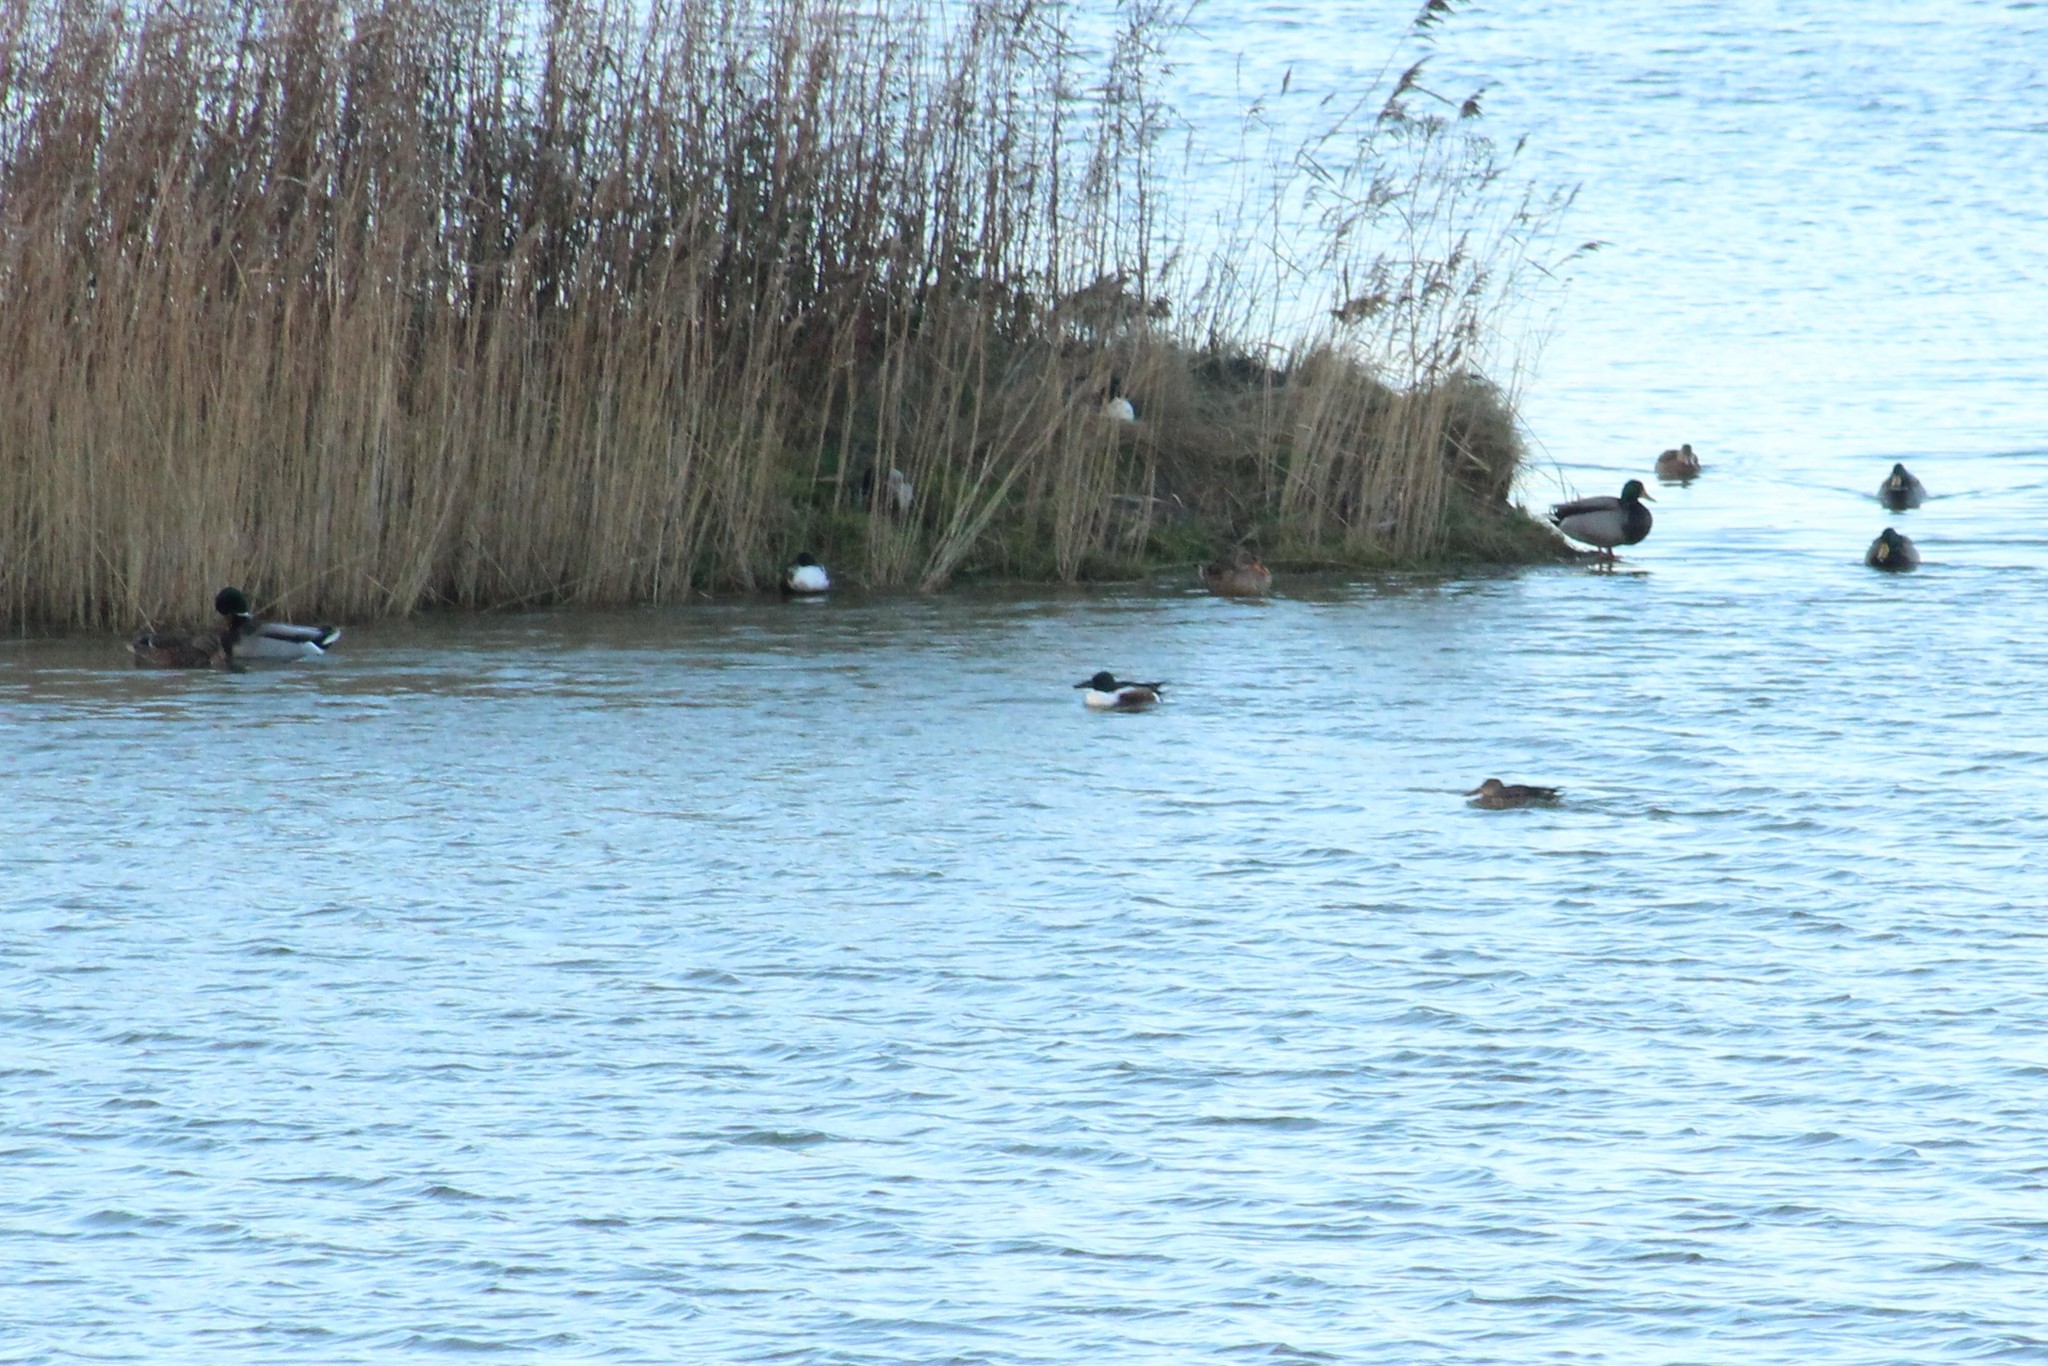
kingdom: Animalia
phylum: Chordata
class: Aves
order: Anseriformes
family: Anatidae
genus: Spatula
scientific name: Spatula clypeata
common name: Northern shoveler
